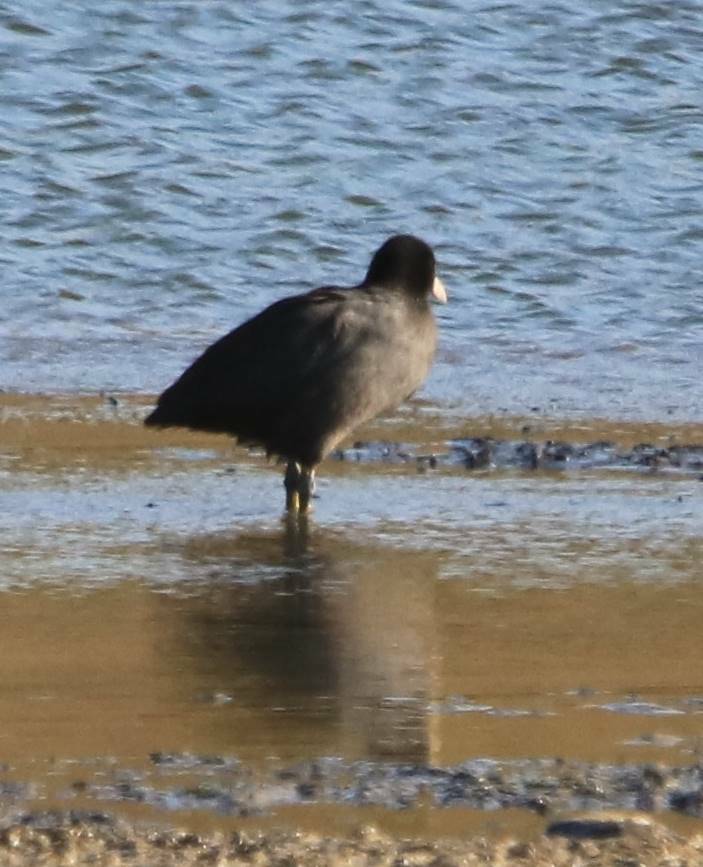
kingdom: Animalia
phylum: Chordata
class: Aves
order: Gruiformes
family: Rallidae
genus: Fulica
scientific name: Fulica atra
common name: Eurasian coot
